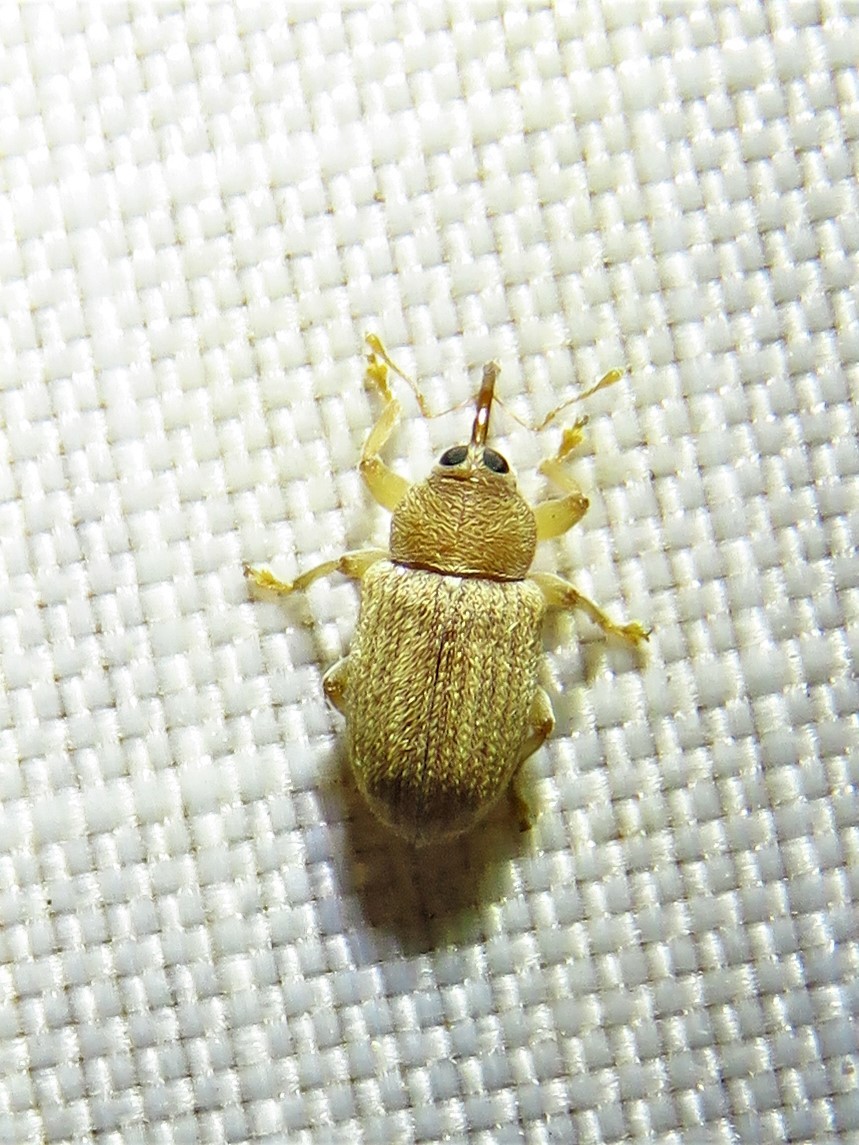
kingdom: Animalia
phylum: Arthropoda
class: Insecta
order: Coleoptera
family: Curculionidae
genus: Lignyodes
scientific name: Lignyodes helvolus
